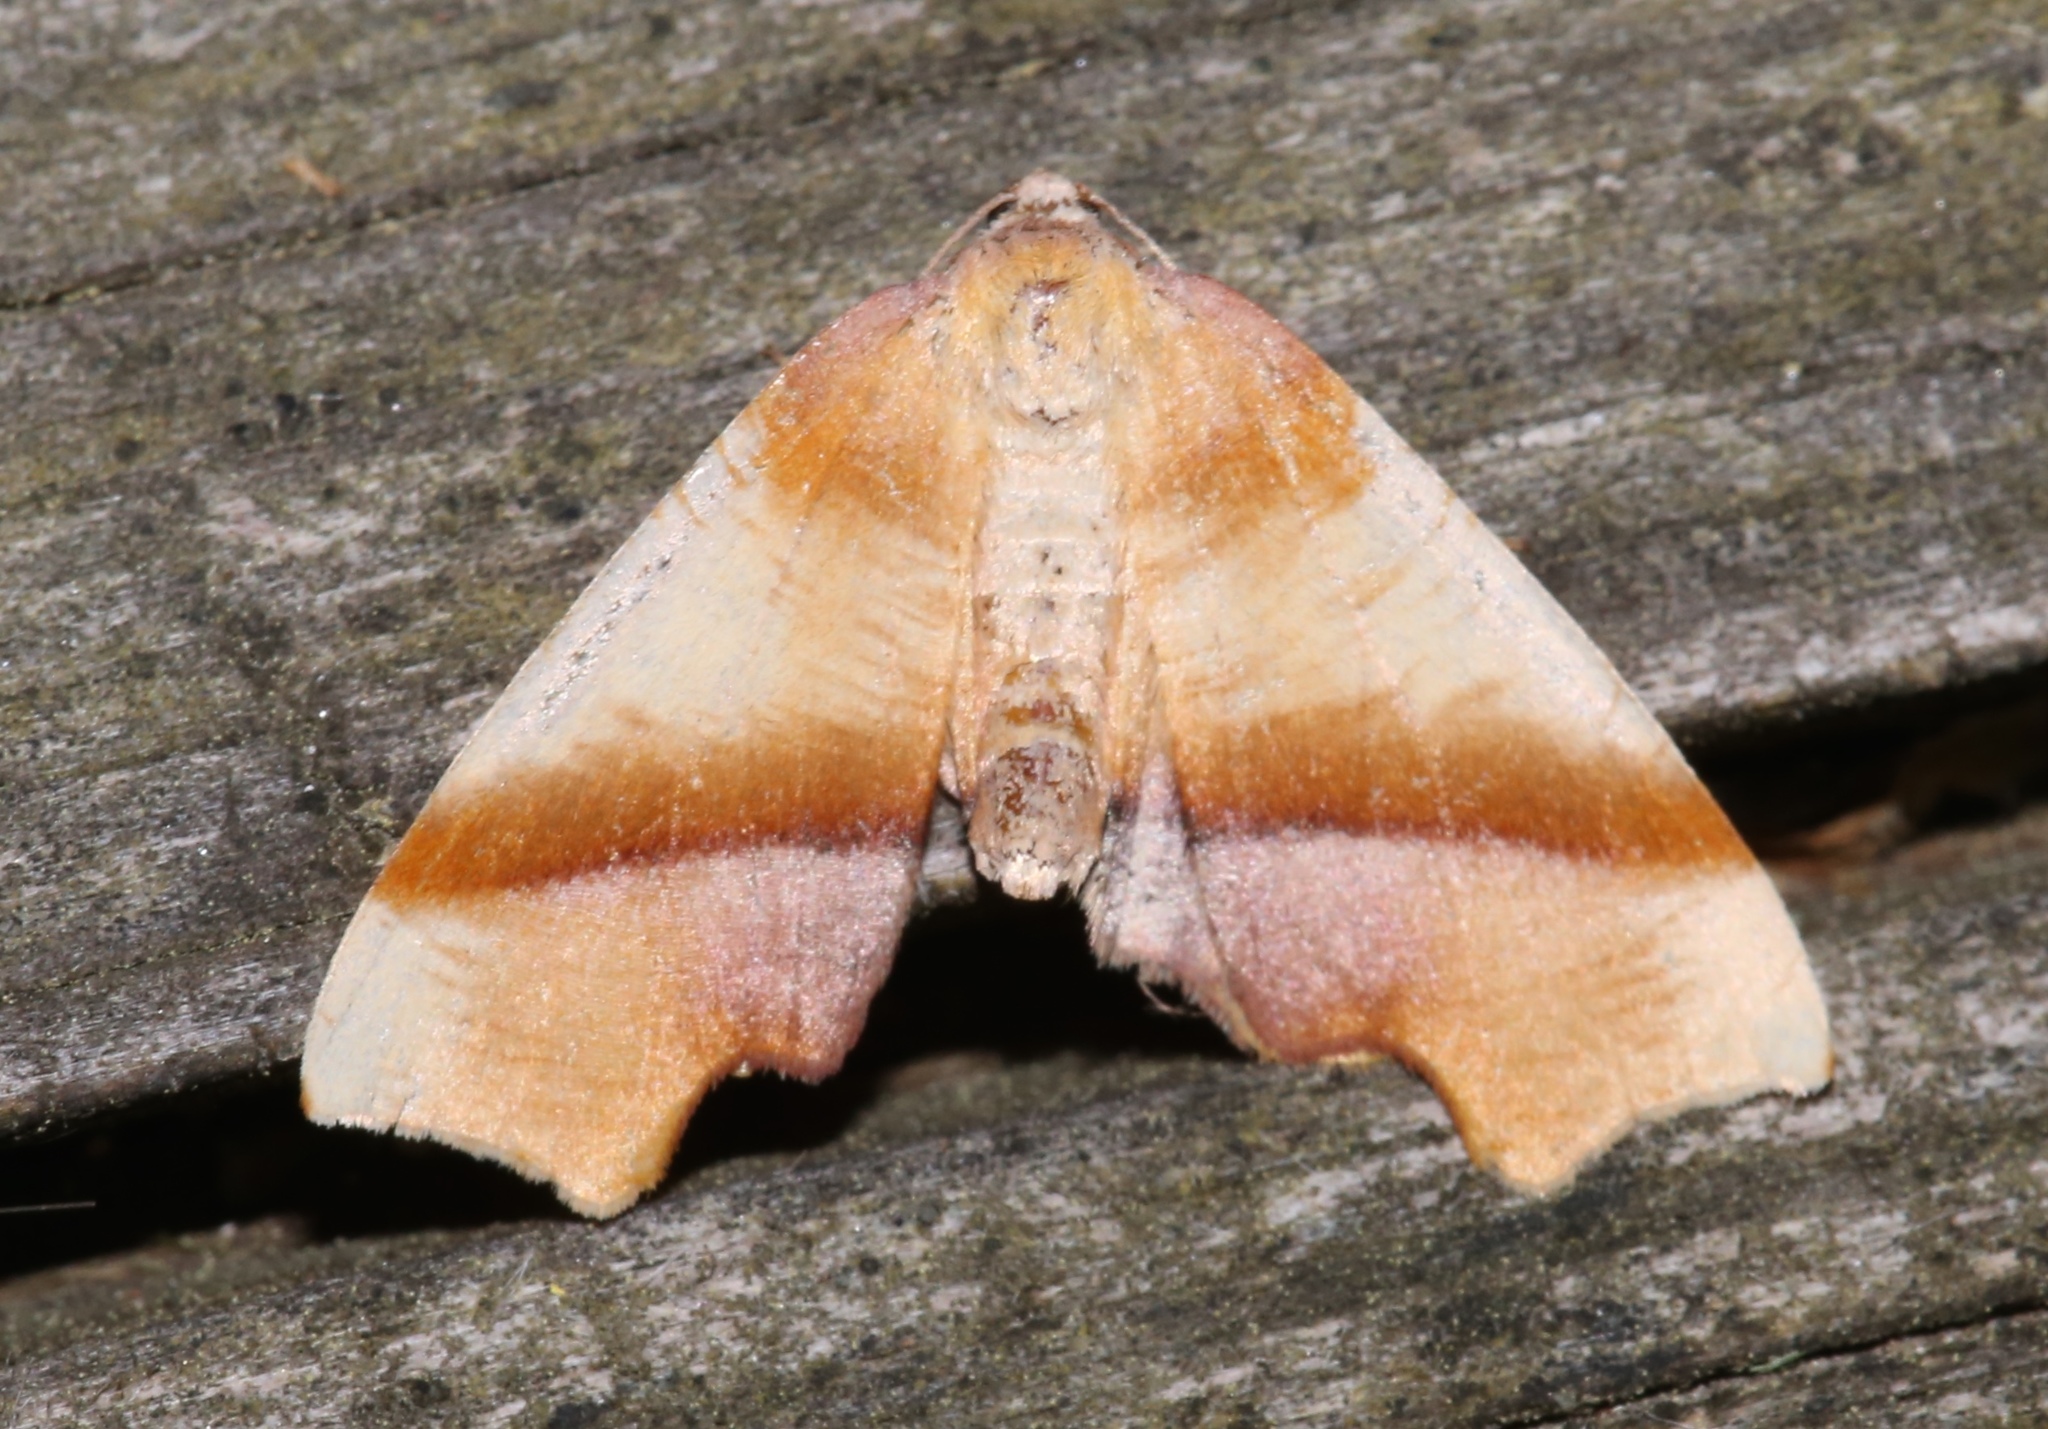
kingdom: Animalia
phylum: Arthropoda
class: Insecta
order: Lepidoptera
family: Geometridae
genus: Plagodis
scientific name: Plagodis phlogosaria
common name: Straight-lined plagodis
